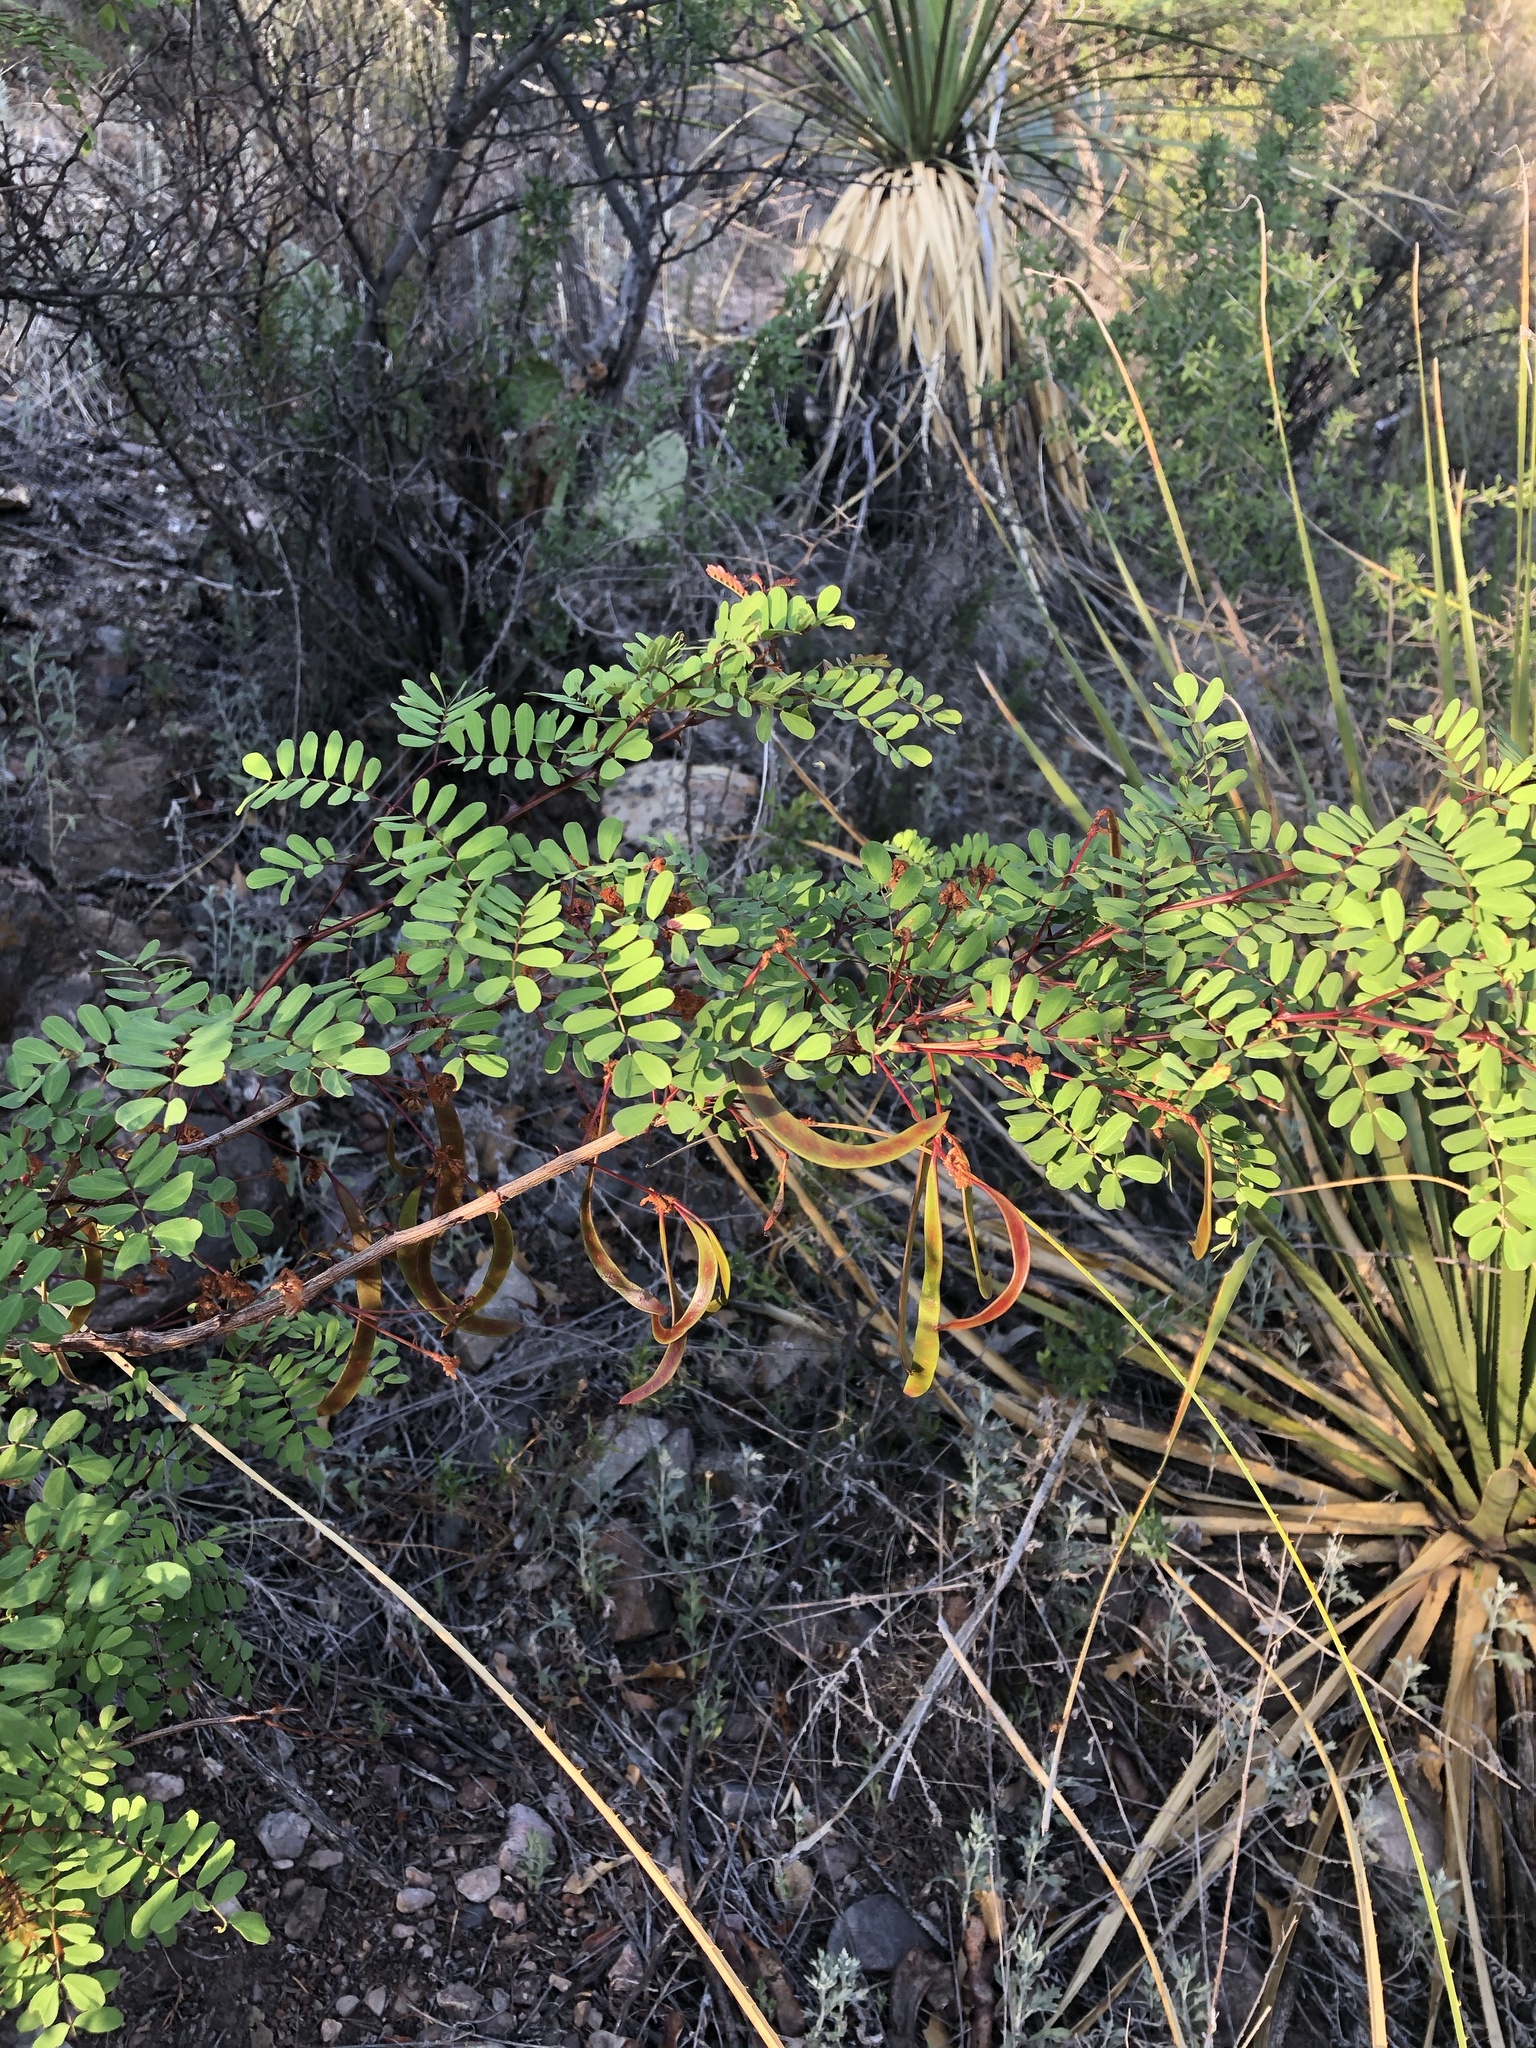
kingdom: Plantae
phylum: Tracheophyta
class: Magnoliopsida
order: Fabales
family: Fabaceae
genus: Senegalia
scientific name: Senegalia roemeriana
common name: Roemer's acacia
